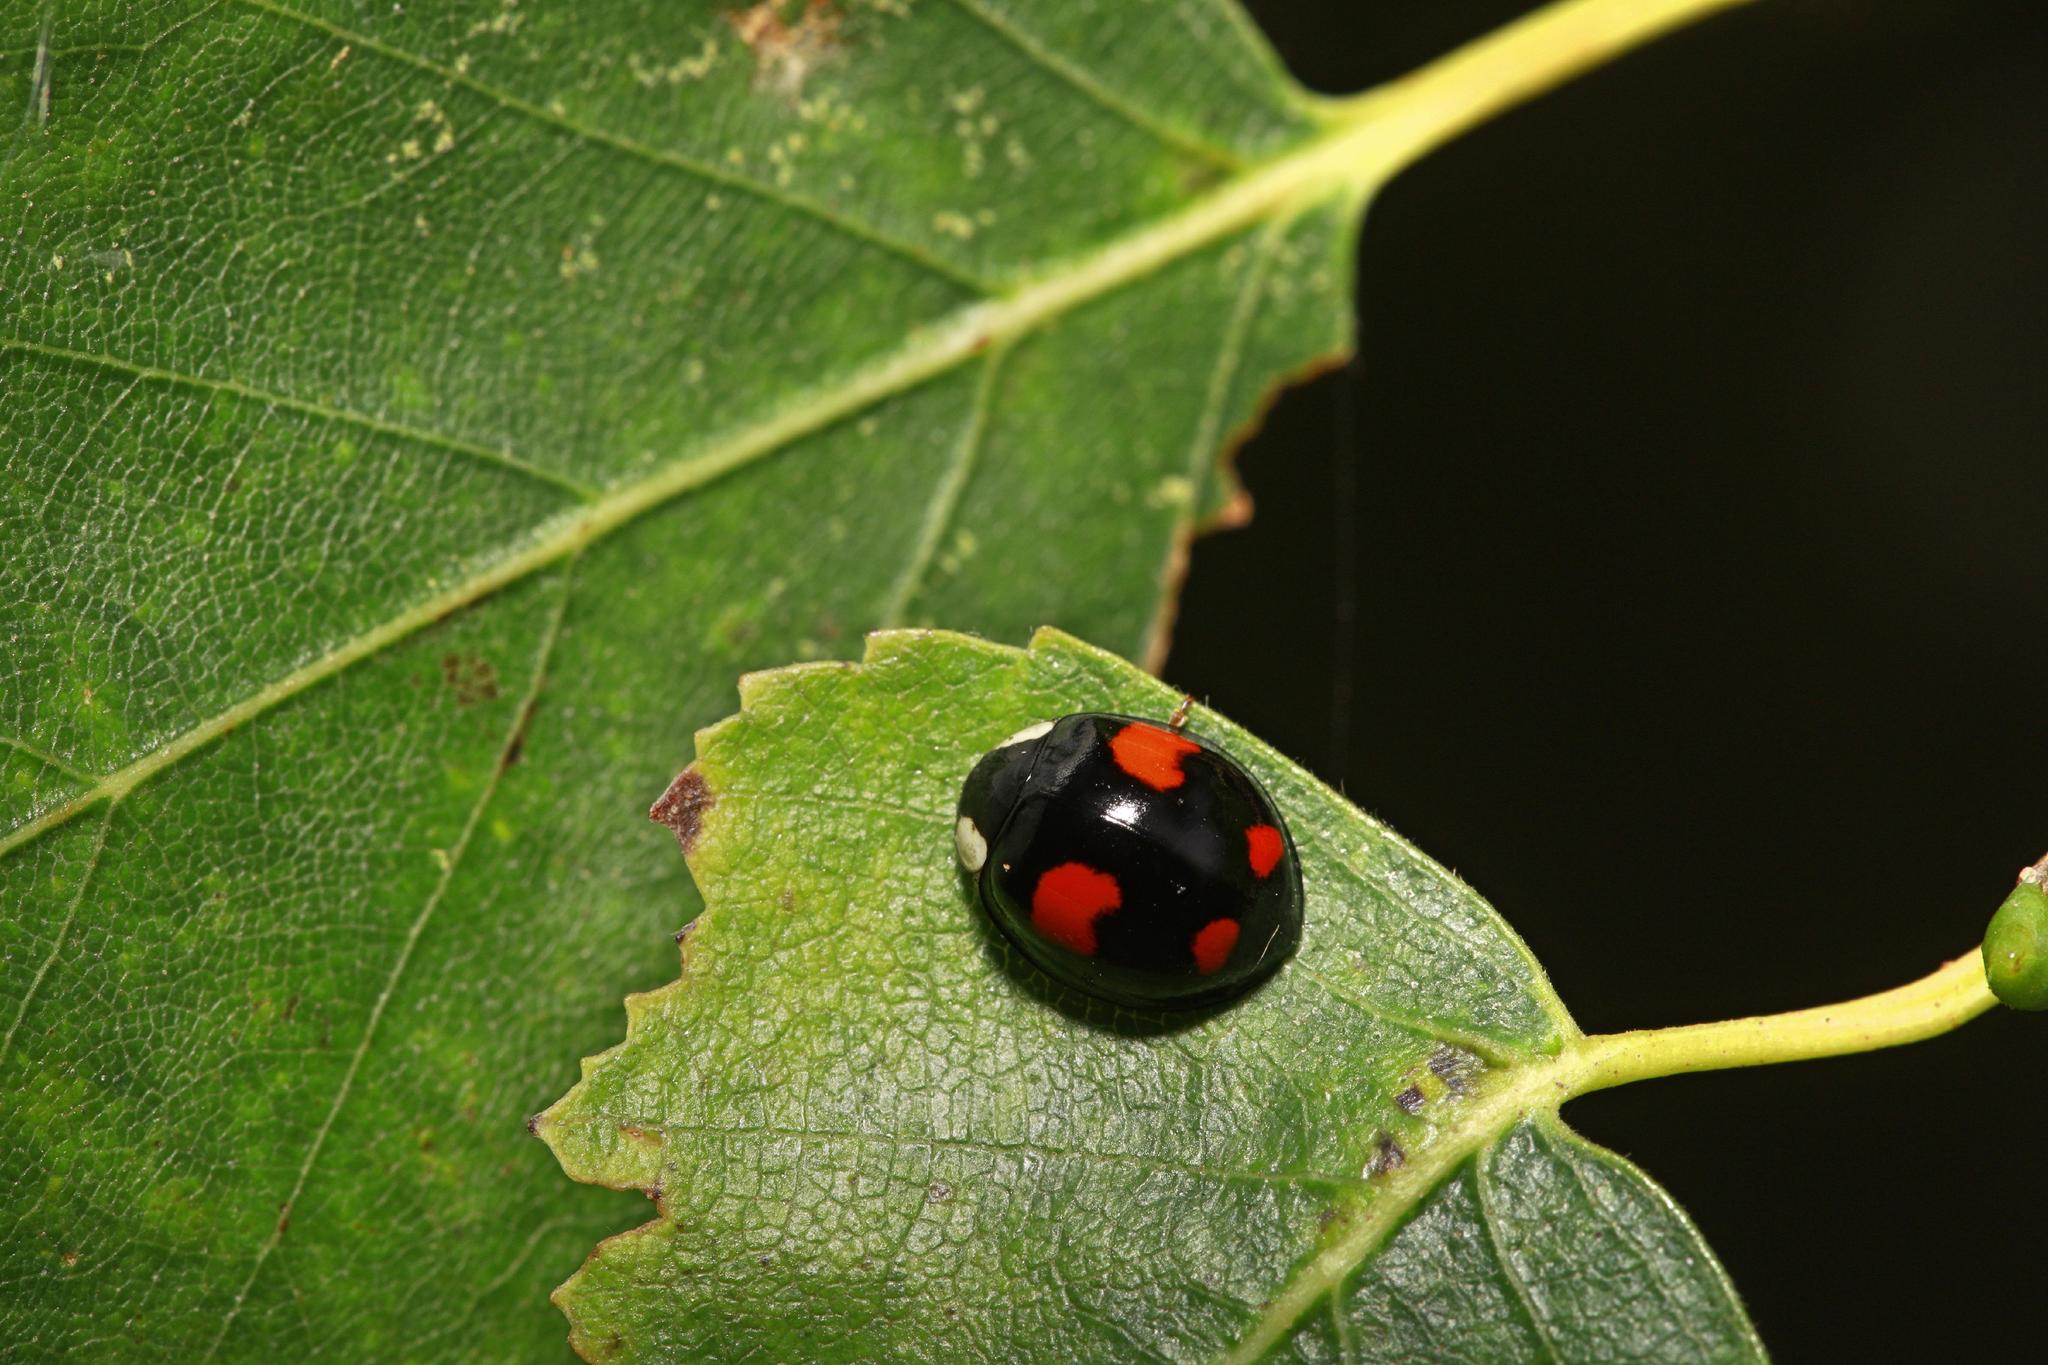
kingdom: Animalia
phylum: Arthropoda
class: Insecta
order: Coleoptera
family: Coccinellidae
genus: Harmonia
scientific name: Harmonia axyridis
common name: Harlequin ladybird
